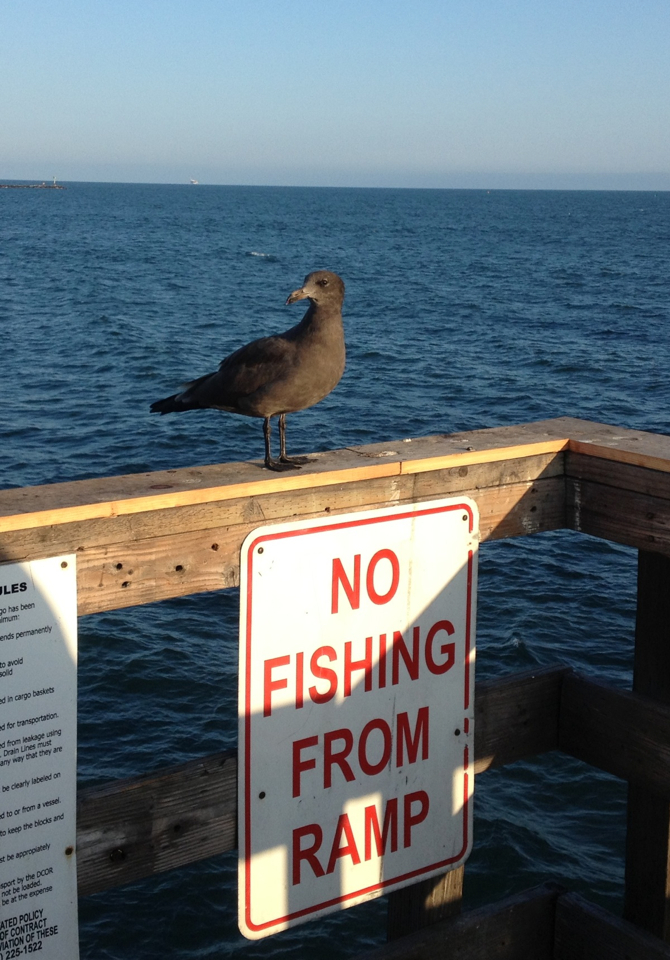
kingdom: Animalia
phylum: Chordata
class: Aves
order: Charadriiformes
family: Laridae
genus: Larus
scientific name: Larus heermanni
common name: Heermann's gull
